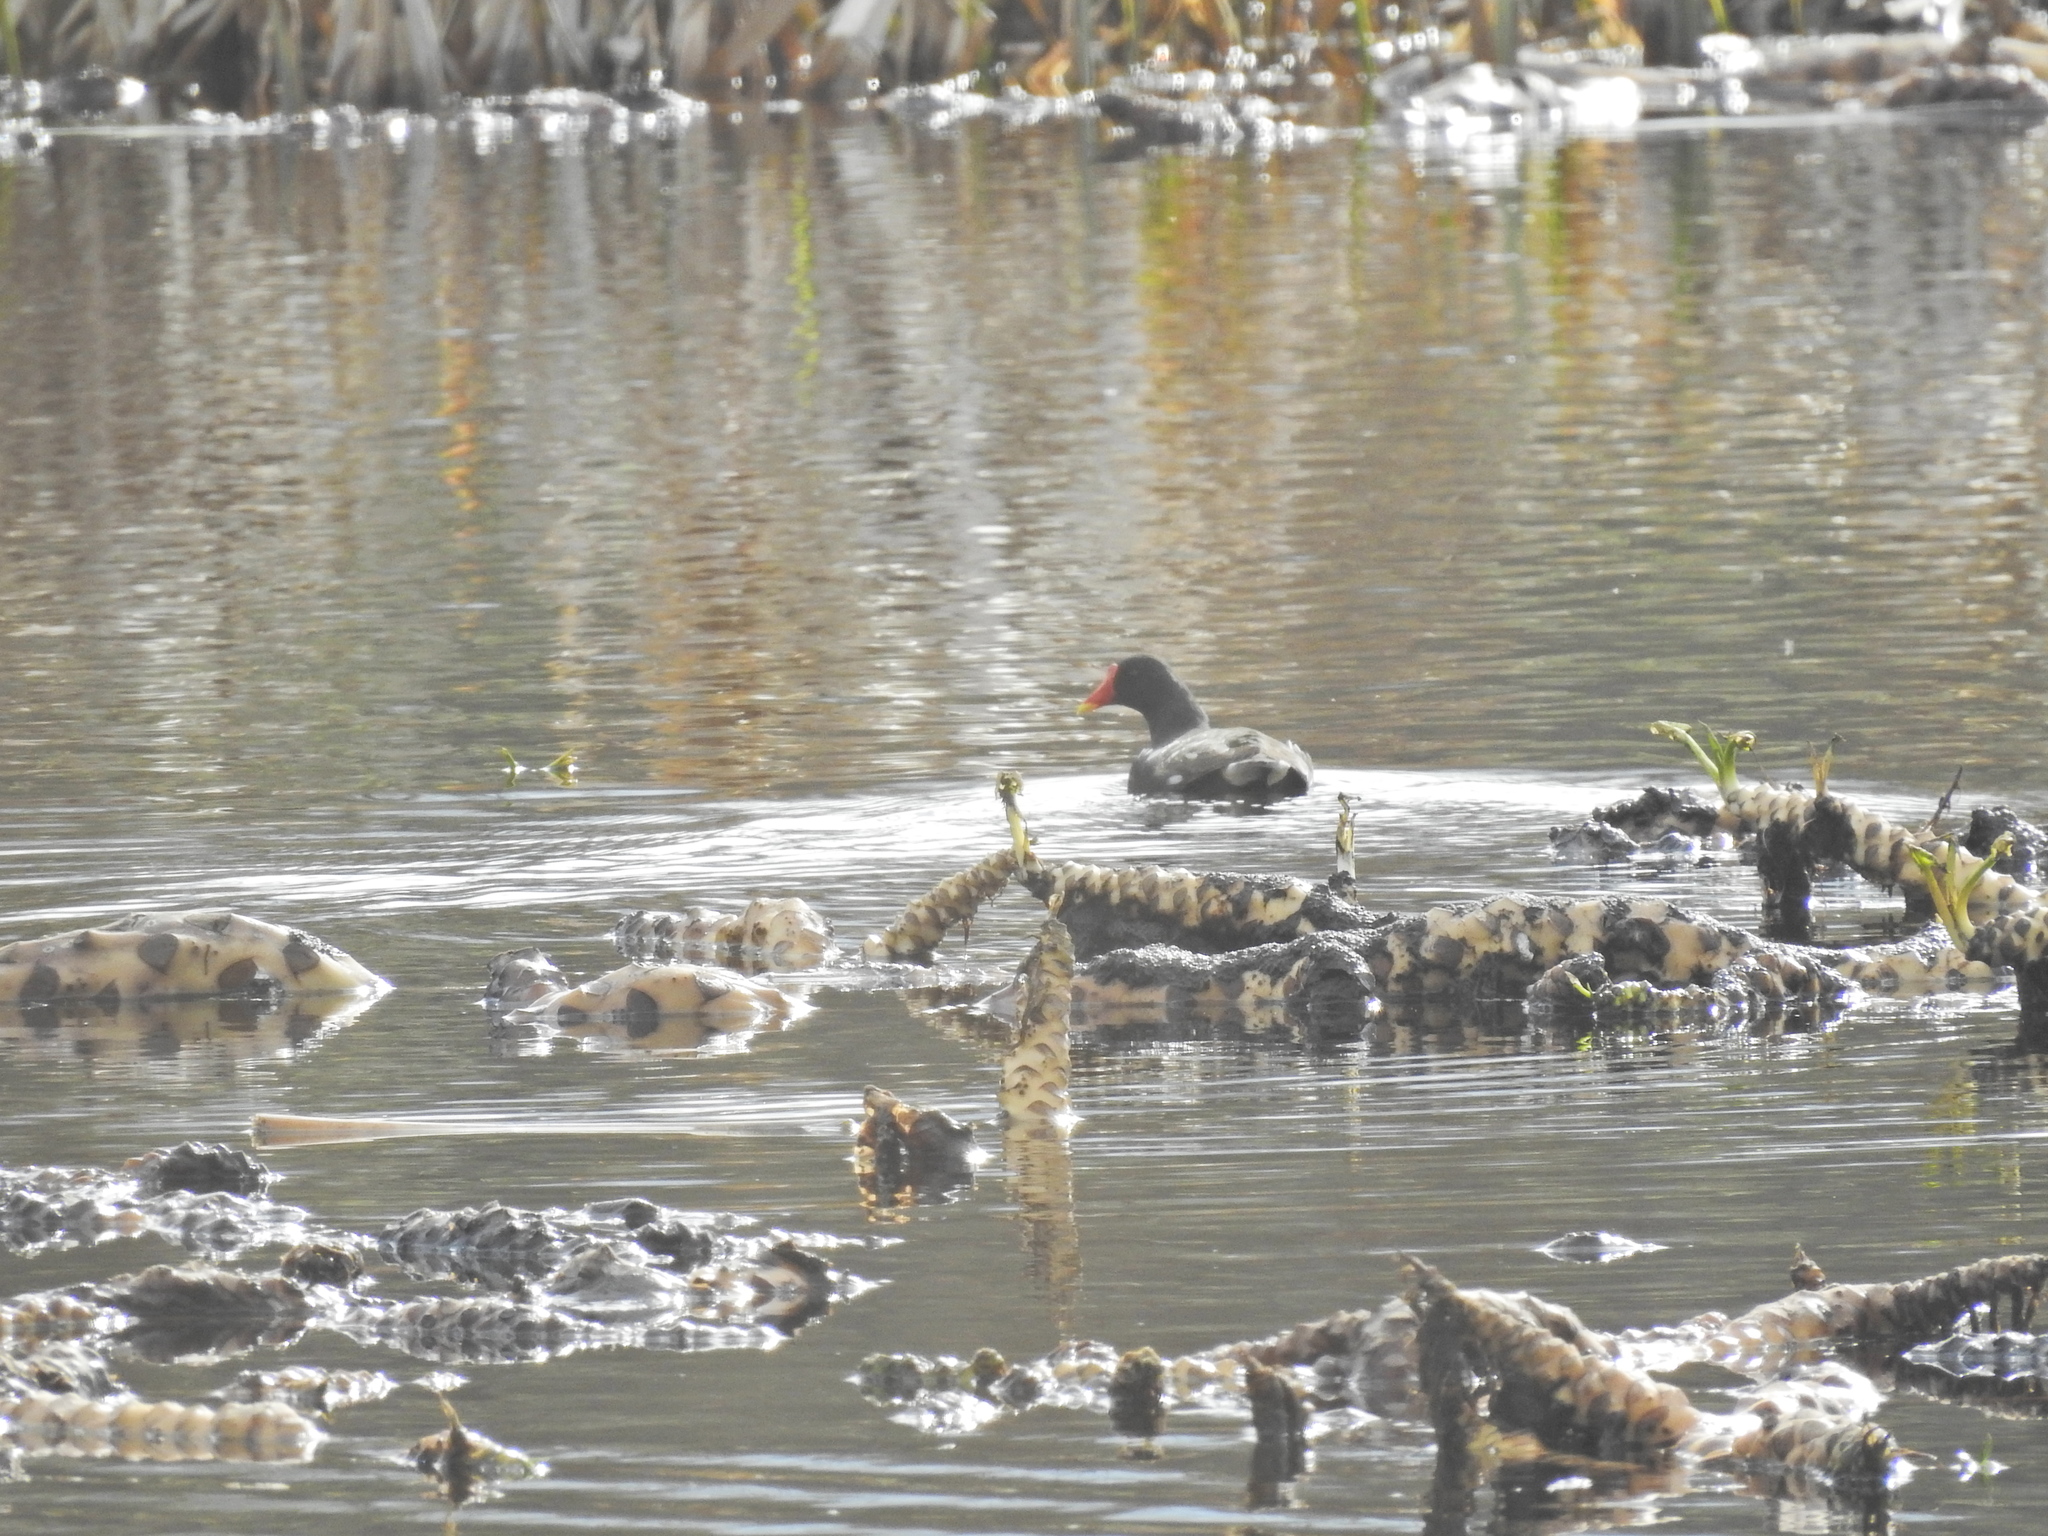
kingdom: Animalia
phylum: Chordata
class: Aves
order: Gruiformes
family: Rallidae
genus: Gallinula
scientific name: Gallinula chloropus
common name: Common moorhen
